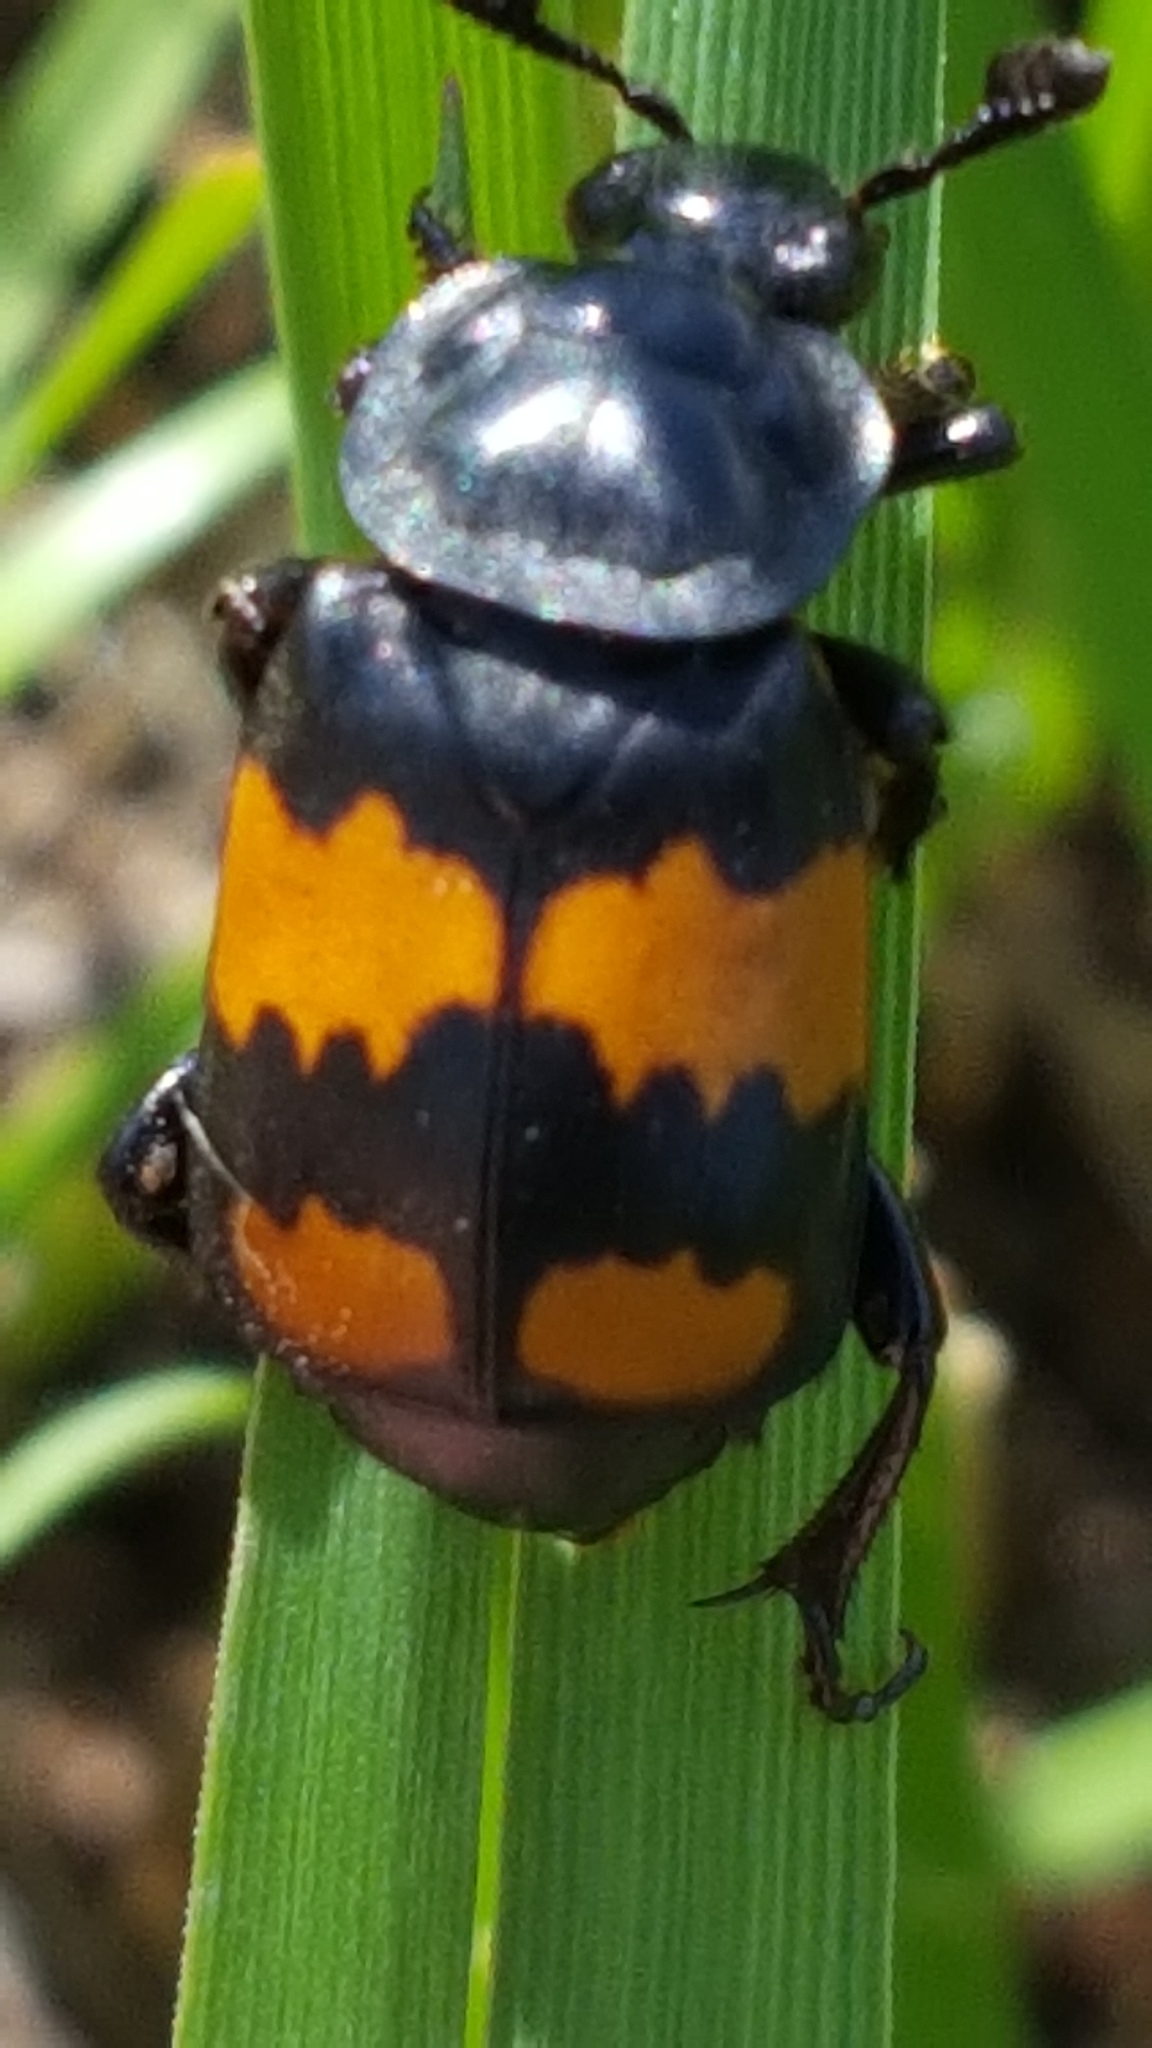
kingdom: Animalia
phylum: Arthropoda
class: Insecta
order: Coleoptera
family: Staphylinidae
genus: Nicrophorus
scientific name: Nicrophorus defodiens
